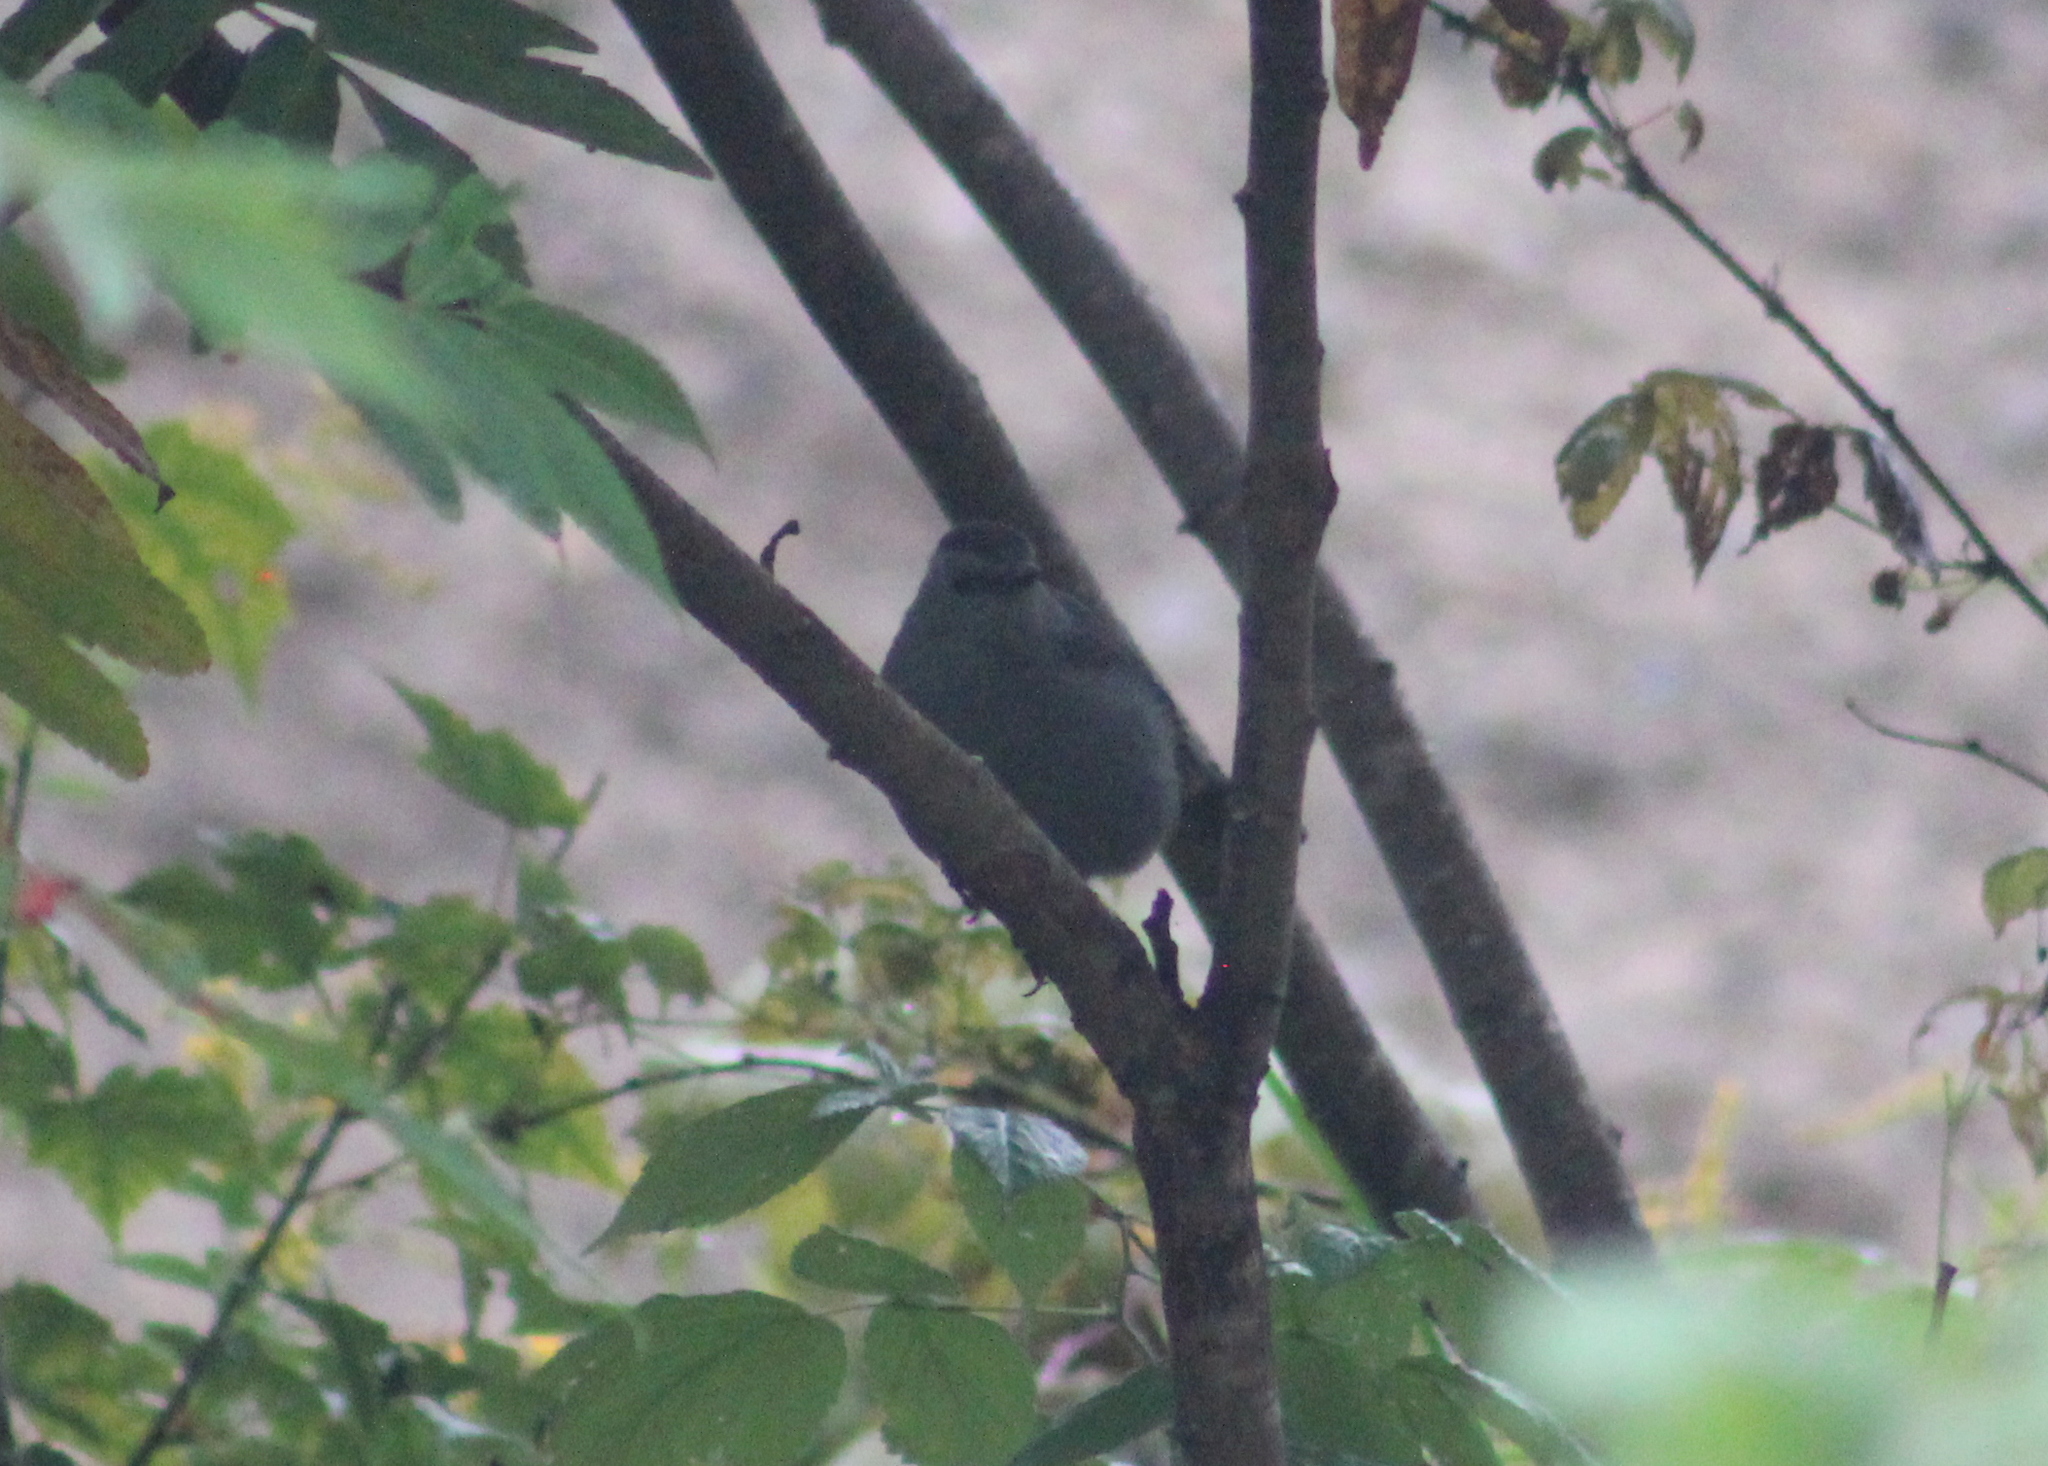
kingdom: Animalia
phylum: Chordata
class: Aves
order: Passeriformes
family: Mimidae
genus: Dumetella
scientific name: Dumetella carolinensis
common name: Gray catbird
